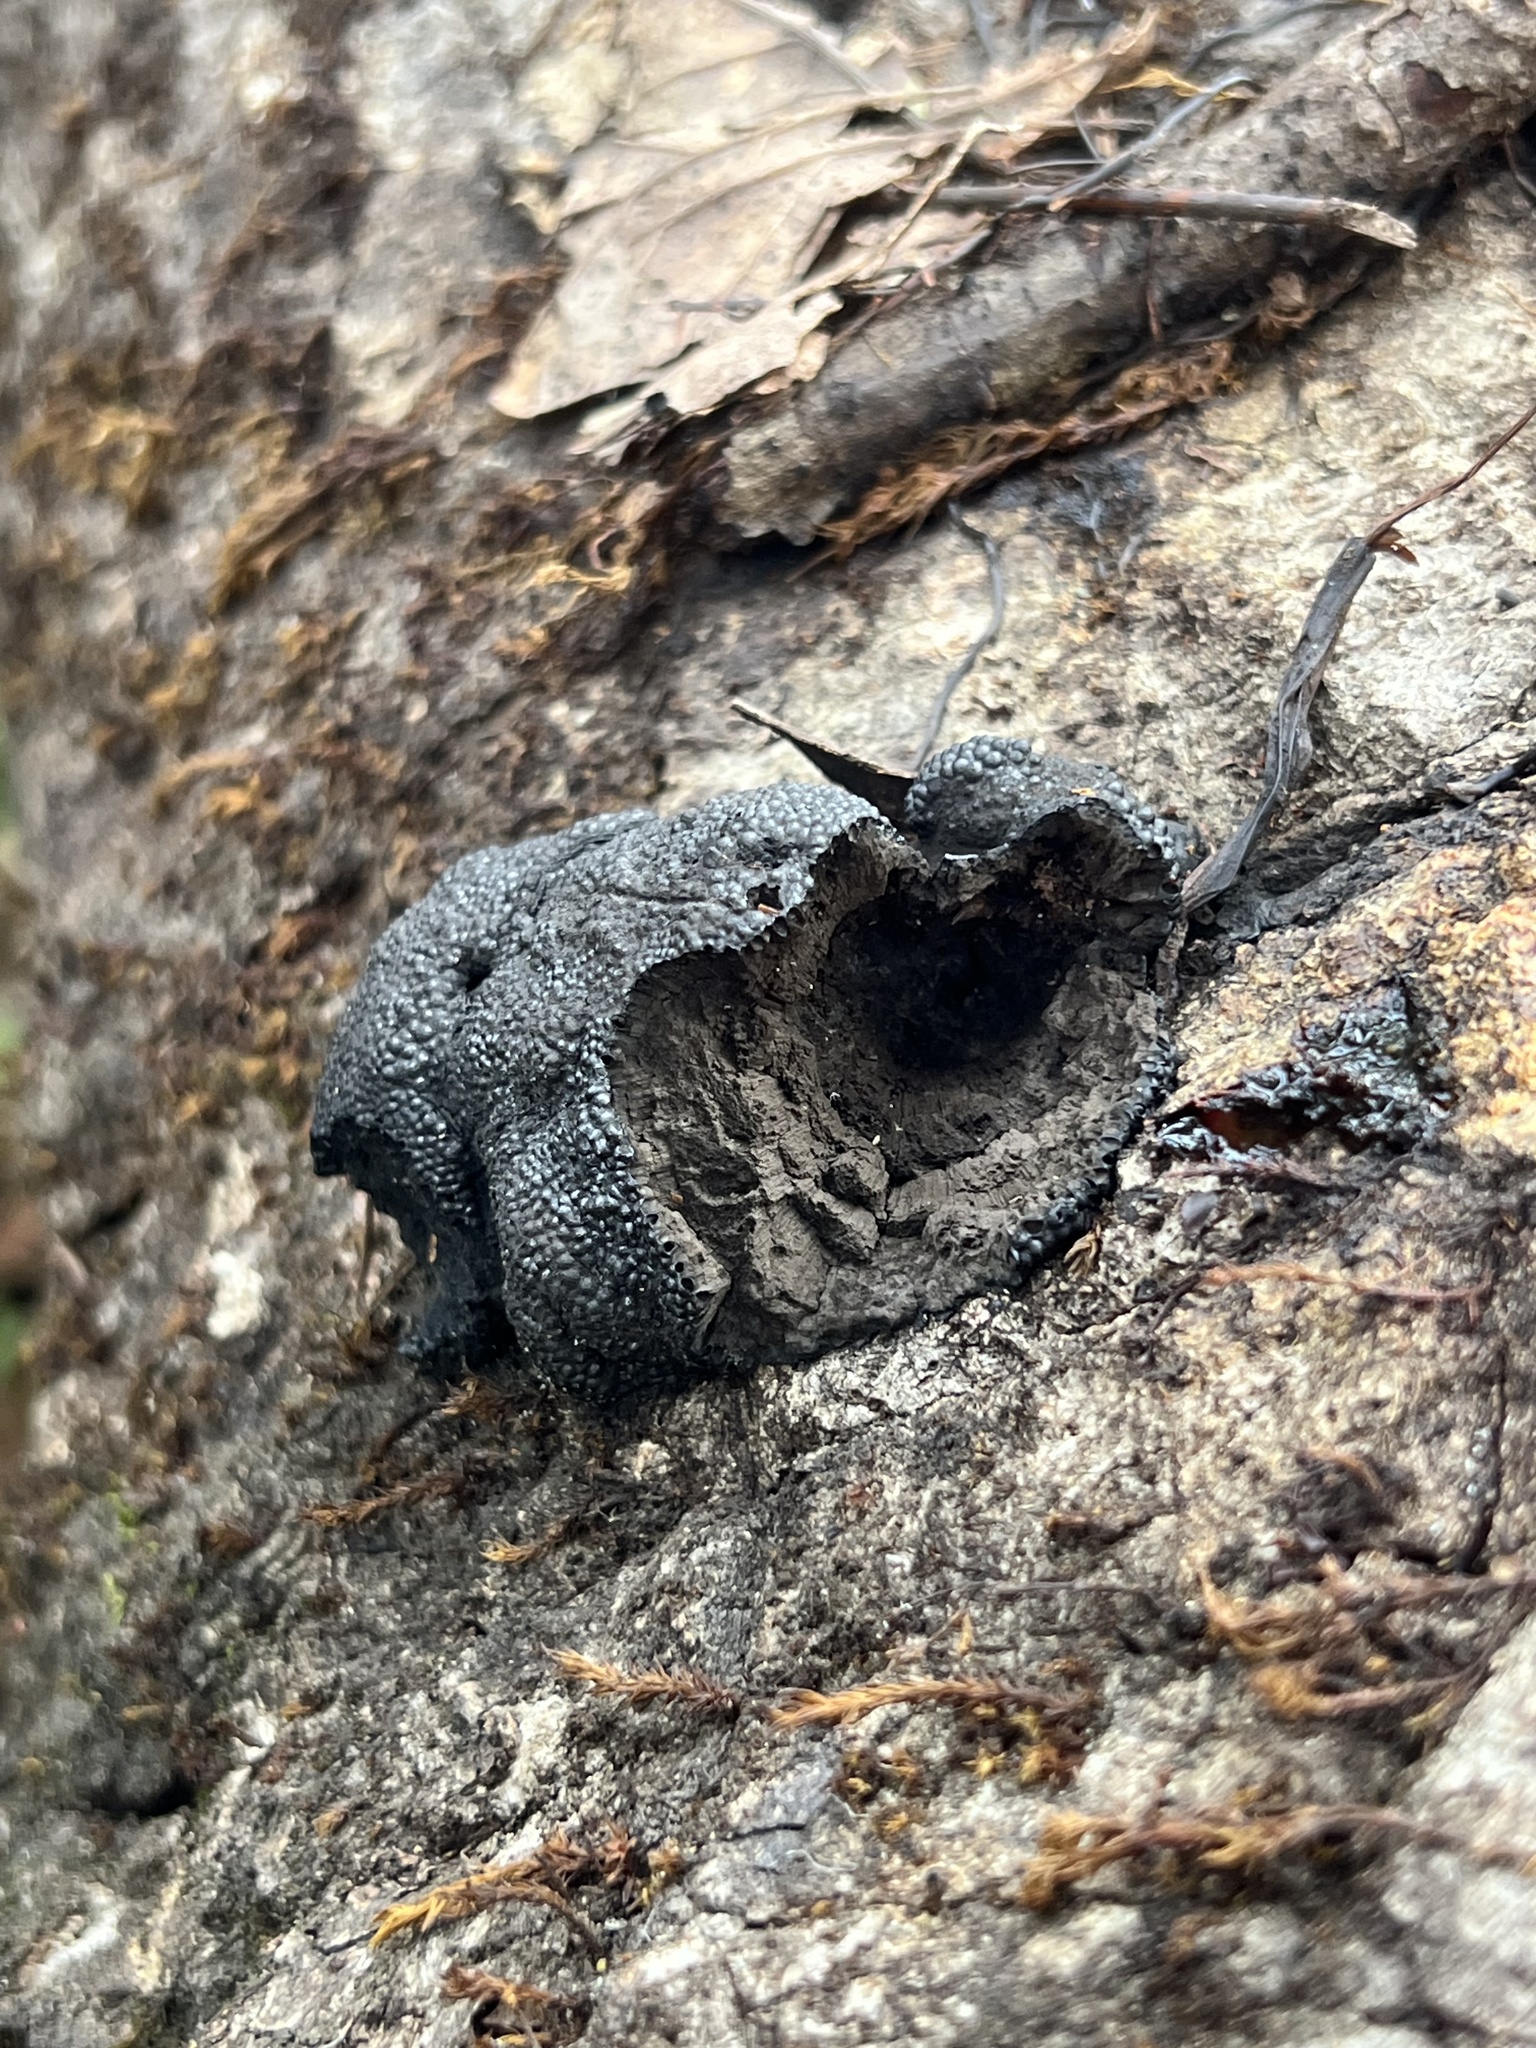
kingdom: Fungi
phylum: Ascomycota
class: Sordariomycetes
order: Xylariales
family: Hypoxylaceae
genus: Annulohypoxylon
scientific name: Annulohypoxylon thouarsianum
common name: Cramp balls
